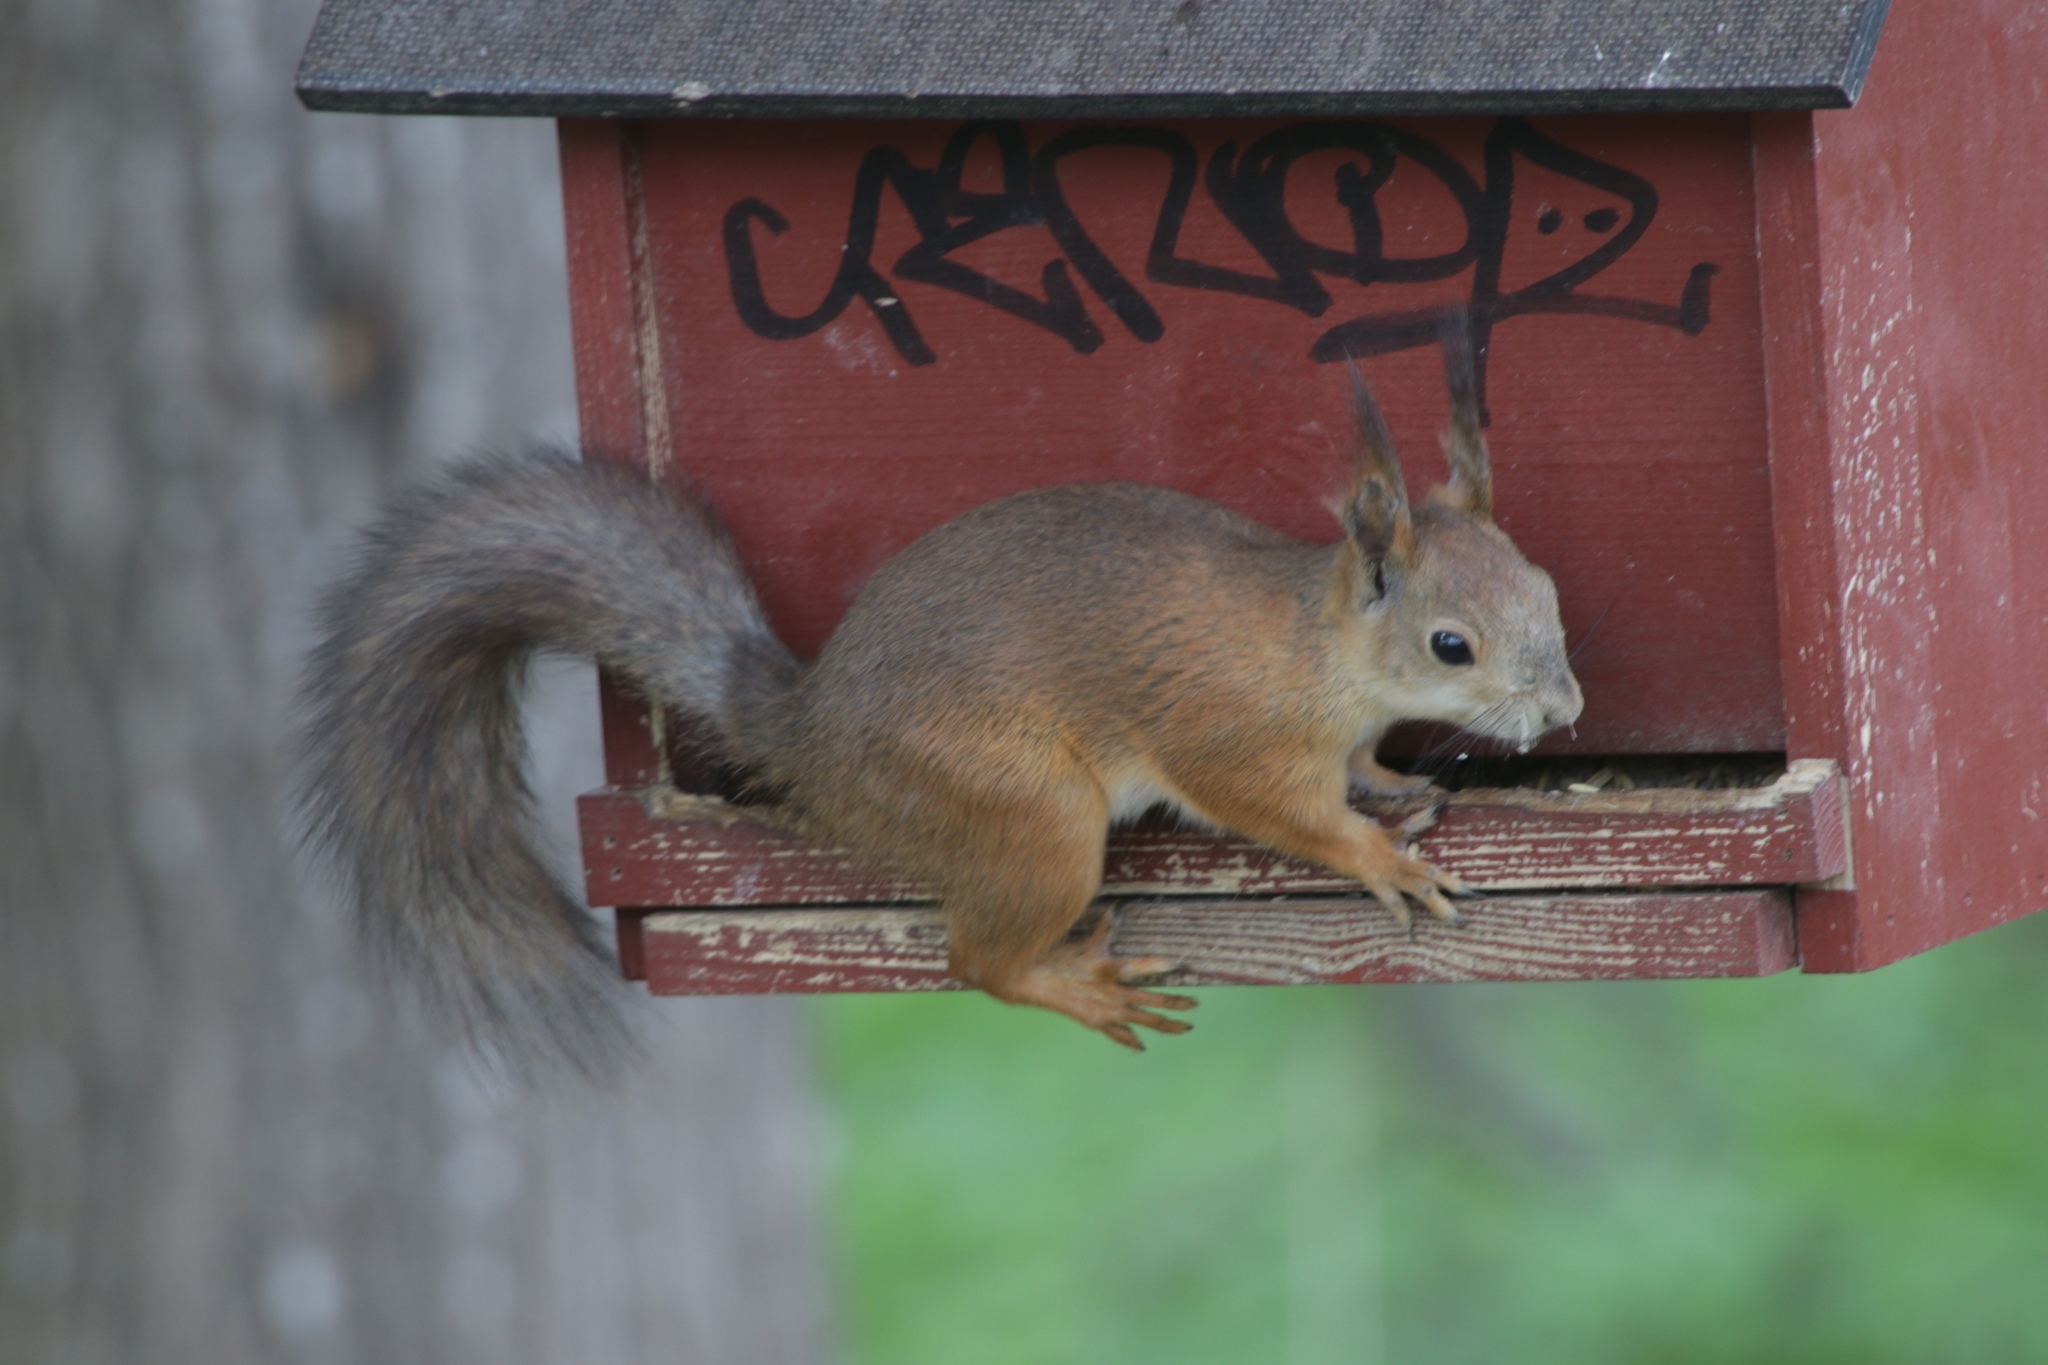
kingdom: Animalia
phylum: Chordata
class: Mammalia
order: Rodentia
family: Sciuridae
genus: Sciurus
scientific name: Sciurus vulgaris
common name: Eurasian red squirrel
